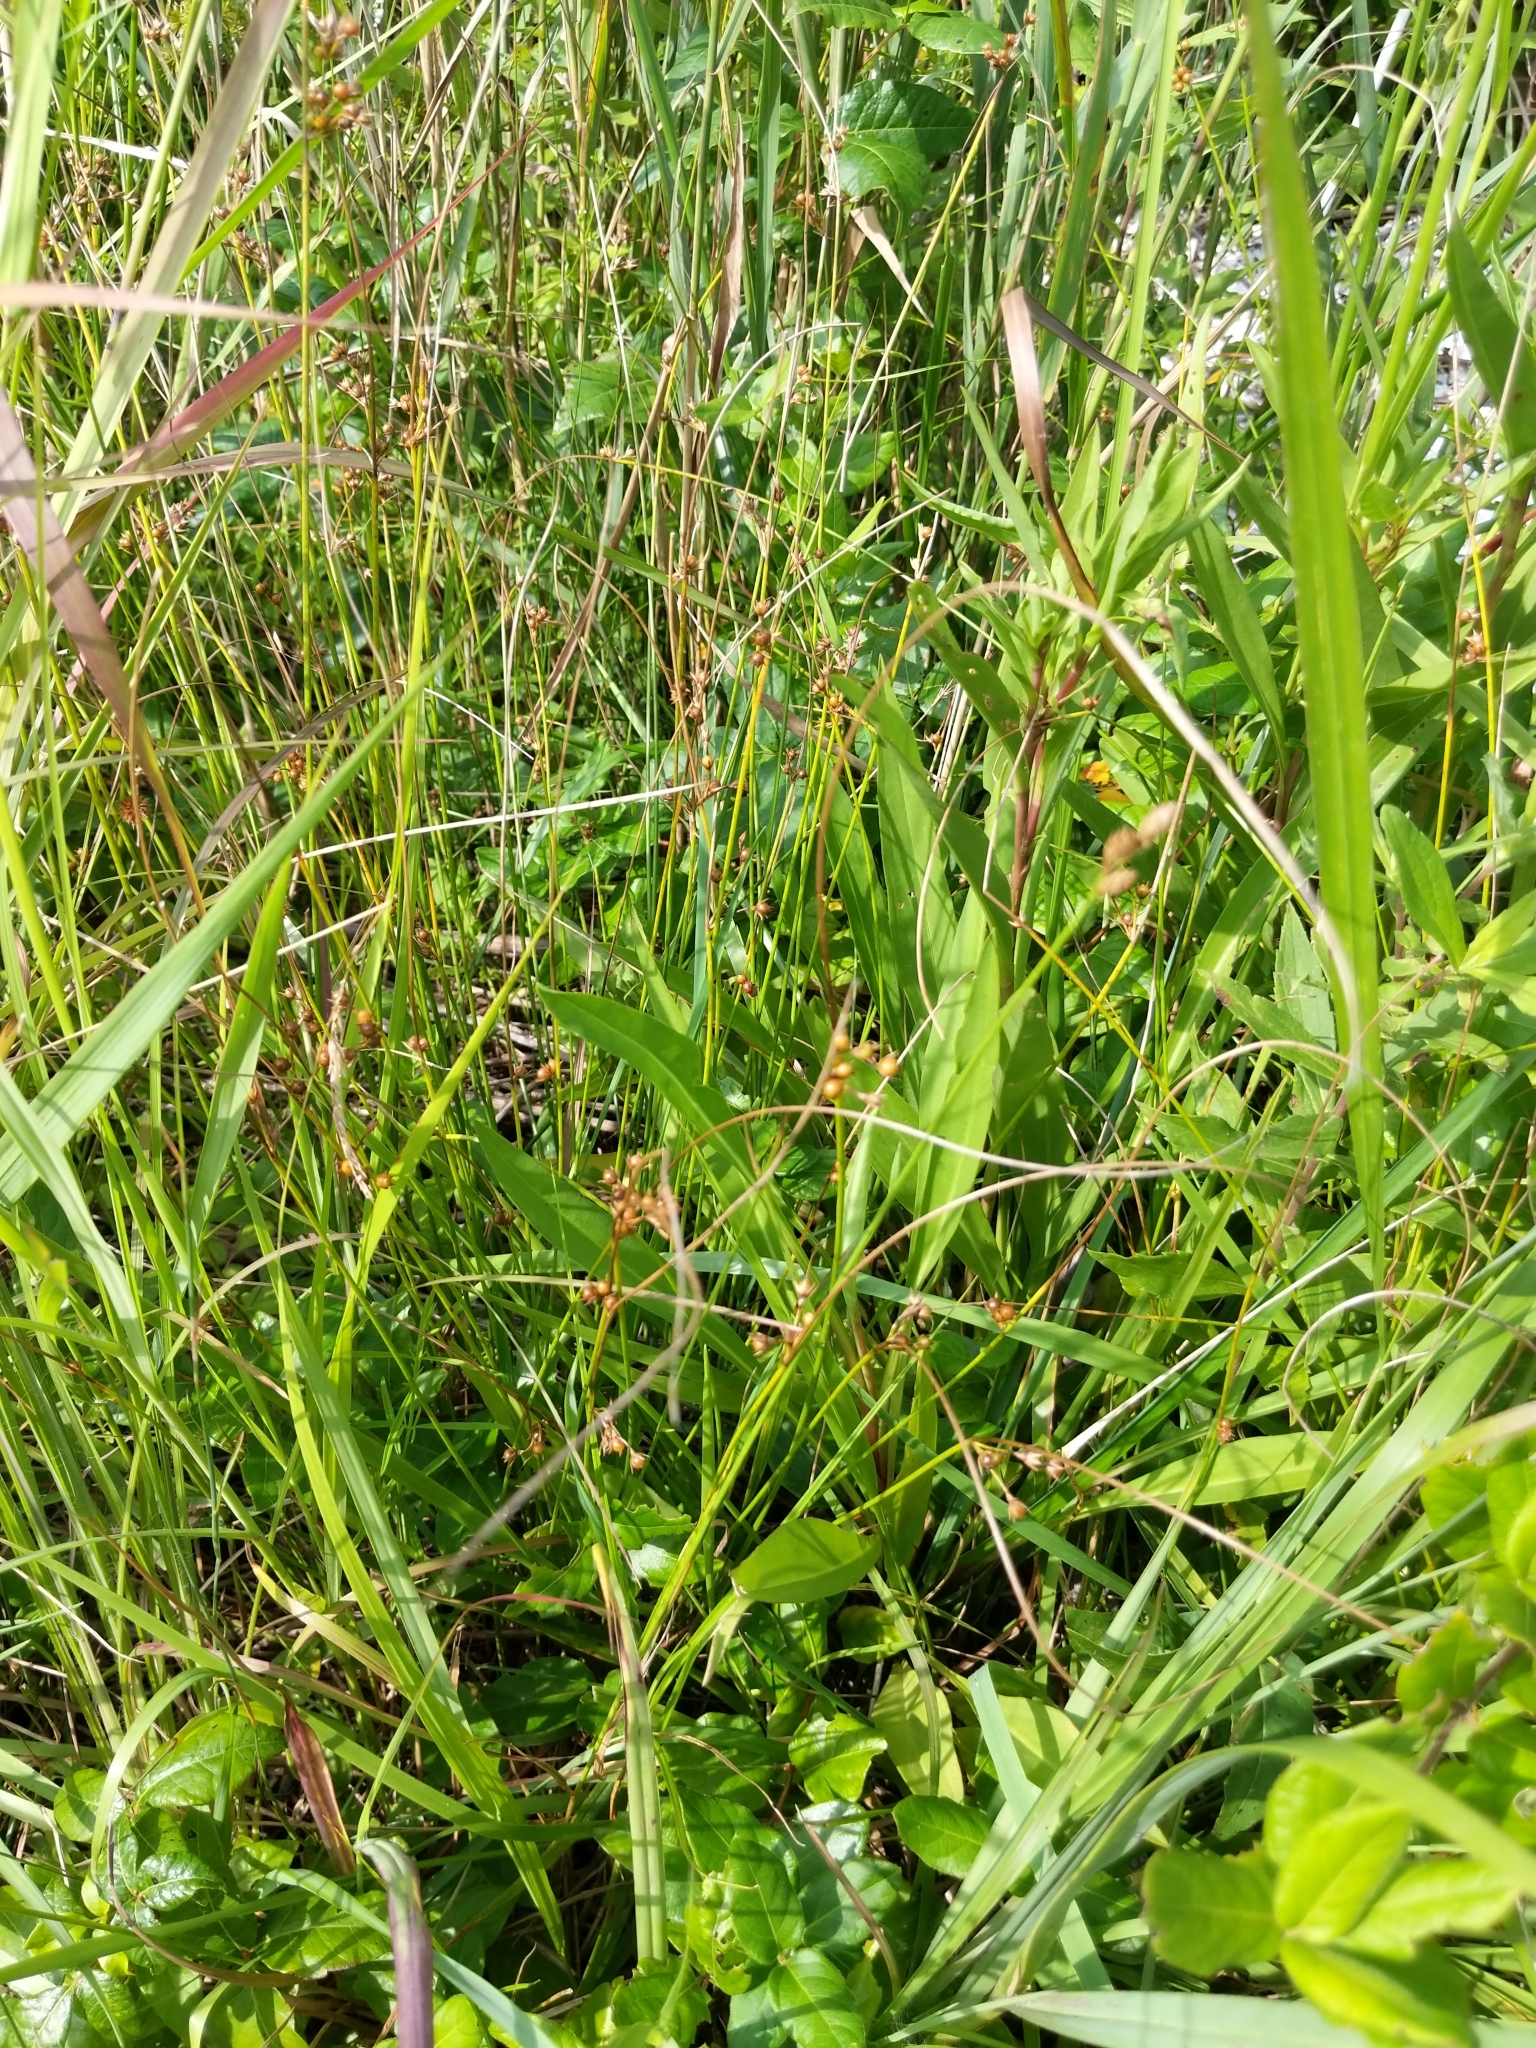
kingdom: Plantae
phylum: Tracheophyta
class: Liliopsida
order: Poales
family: Juncaceae
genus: Juncus
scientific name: Juncus coriaceus
